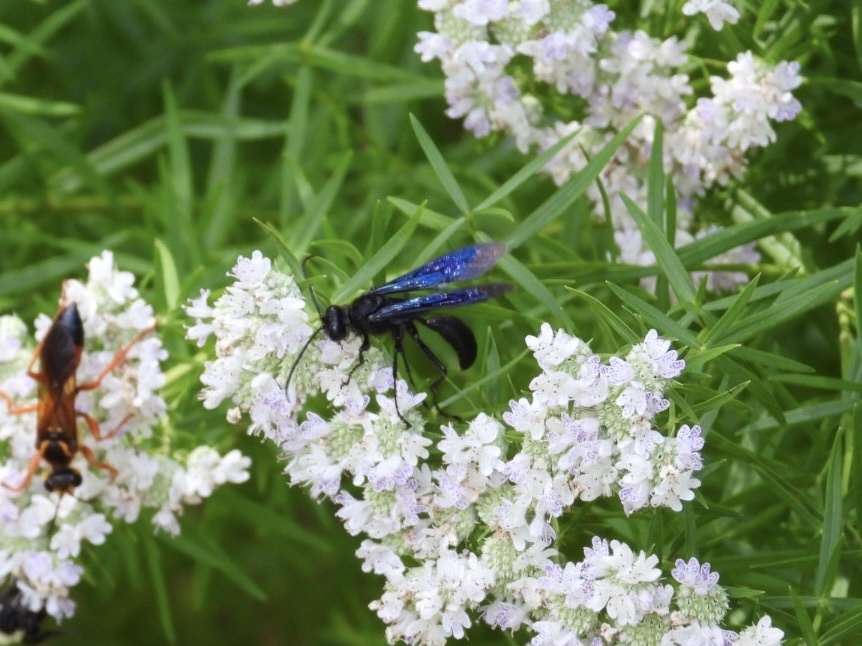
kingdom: Animalia
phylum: Arthropoda
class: Insecta
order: Hymenoptera
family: Sphecidae
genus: Sphex
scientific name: Sphex pensylvanicus
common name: Great black digger wasp
